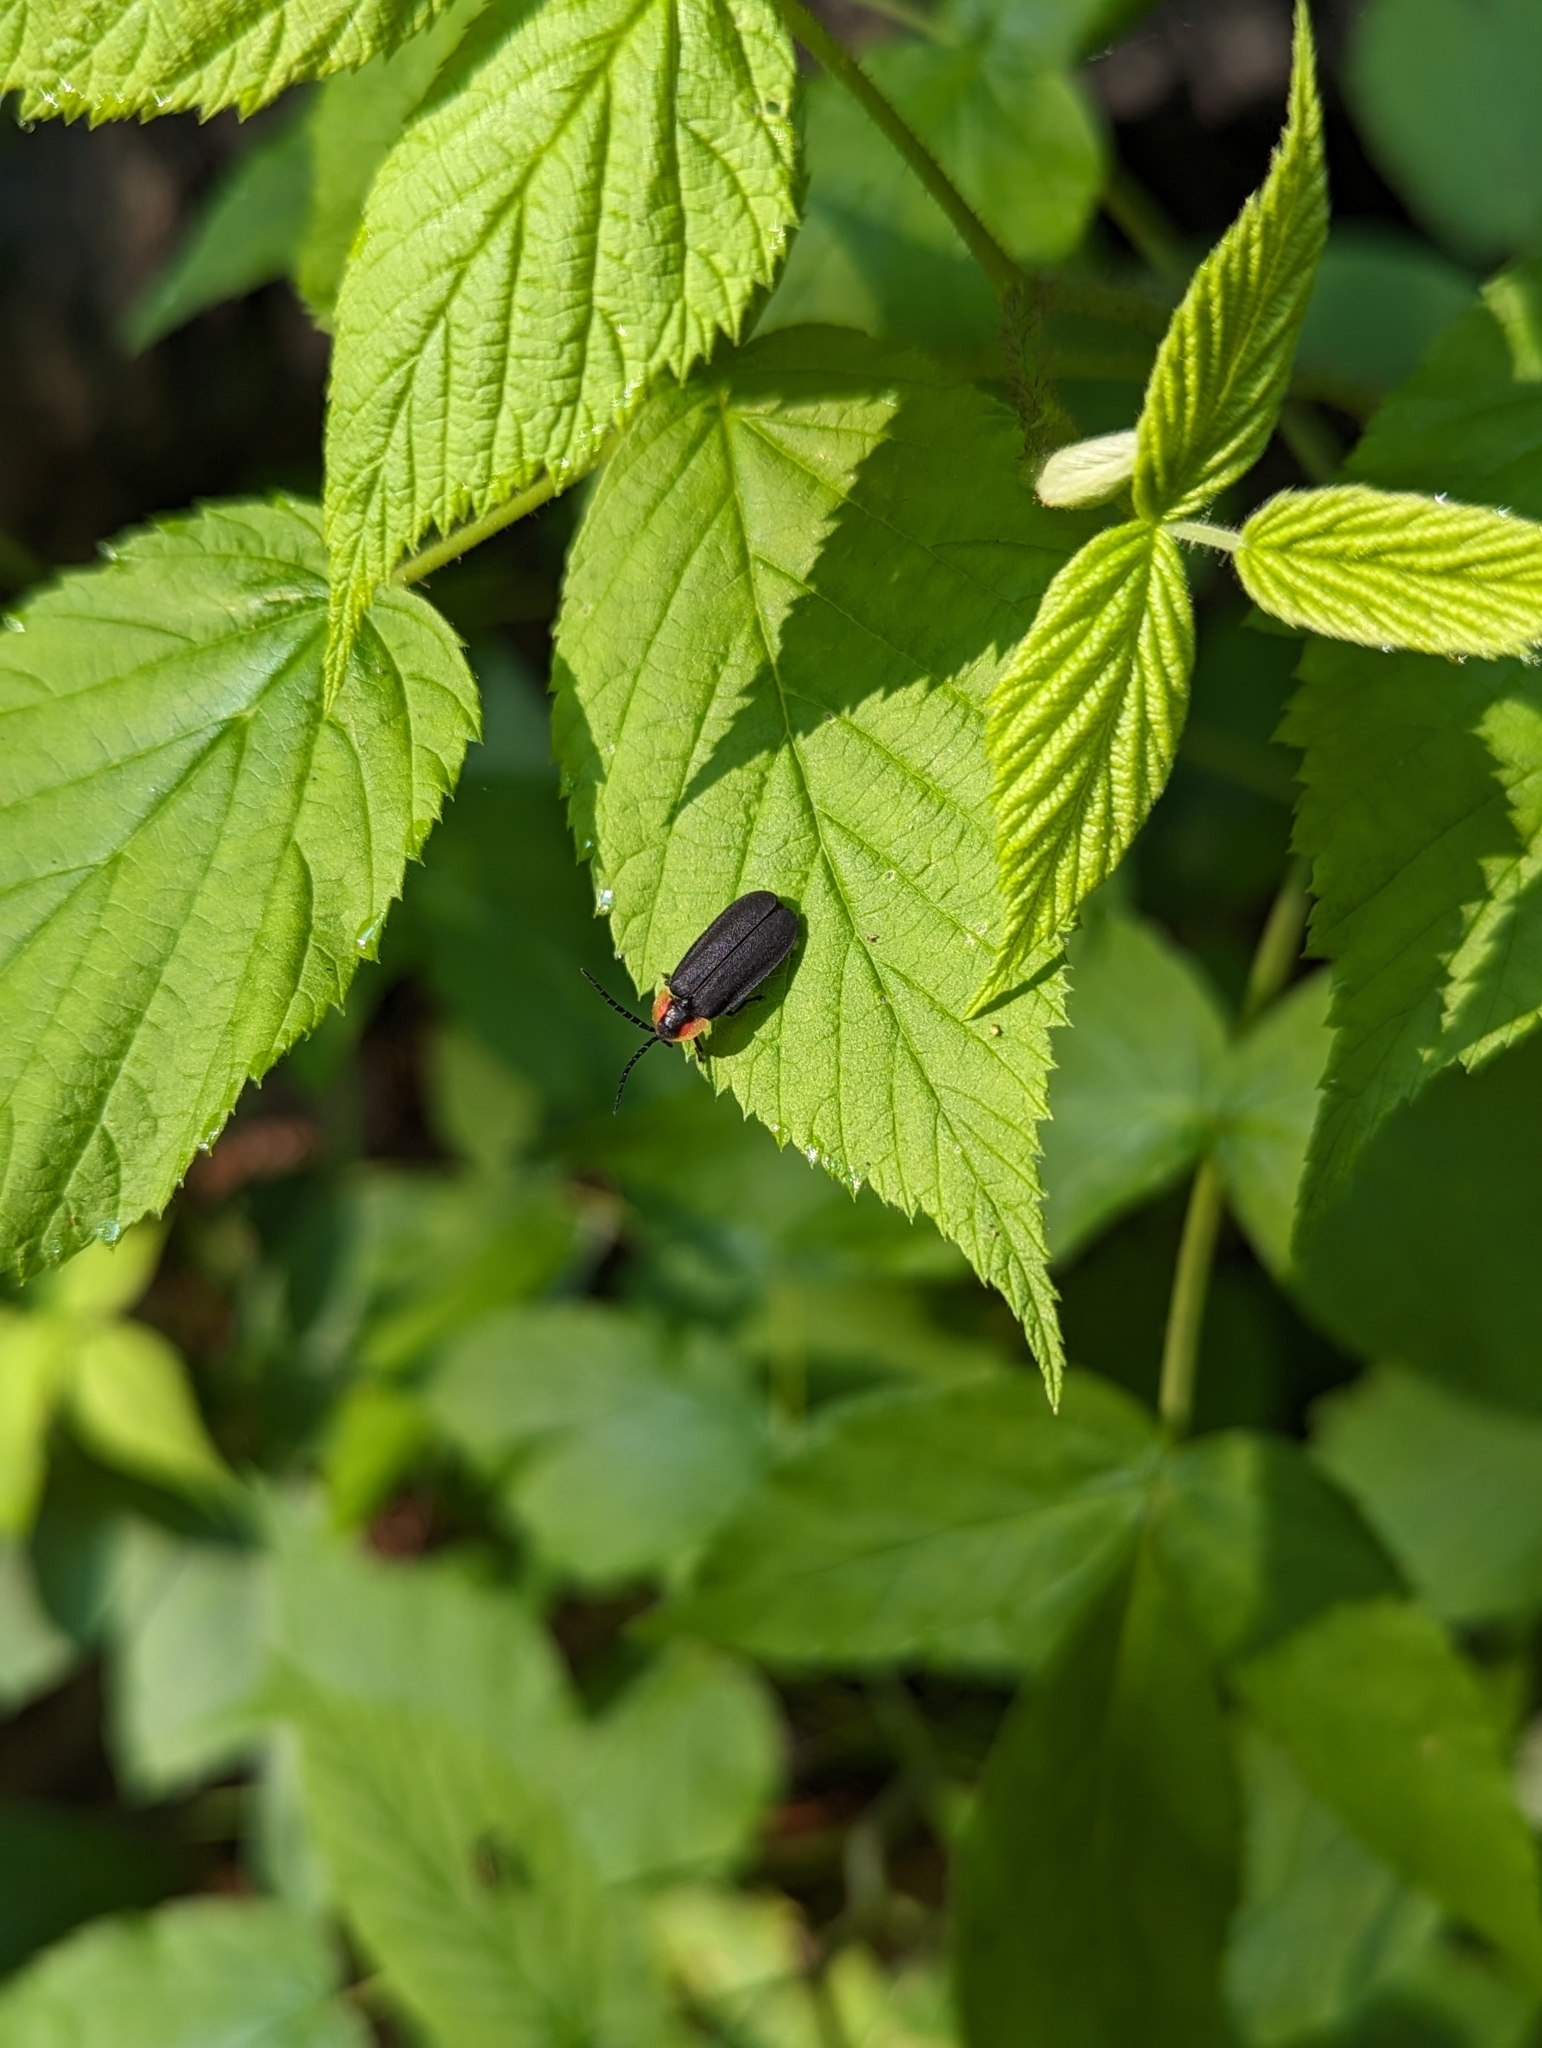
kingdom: Animalia
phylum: Arthropoda
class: Insecta
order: Coleoptera
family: Lampyridae
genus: Lucidota
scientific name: Lucidota atra
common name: Black firefly
